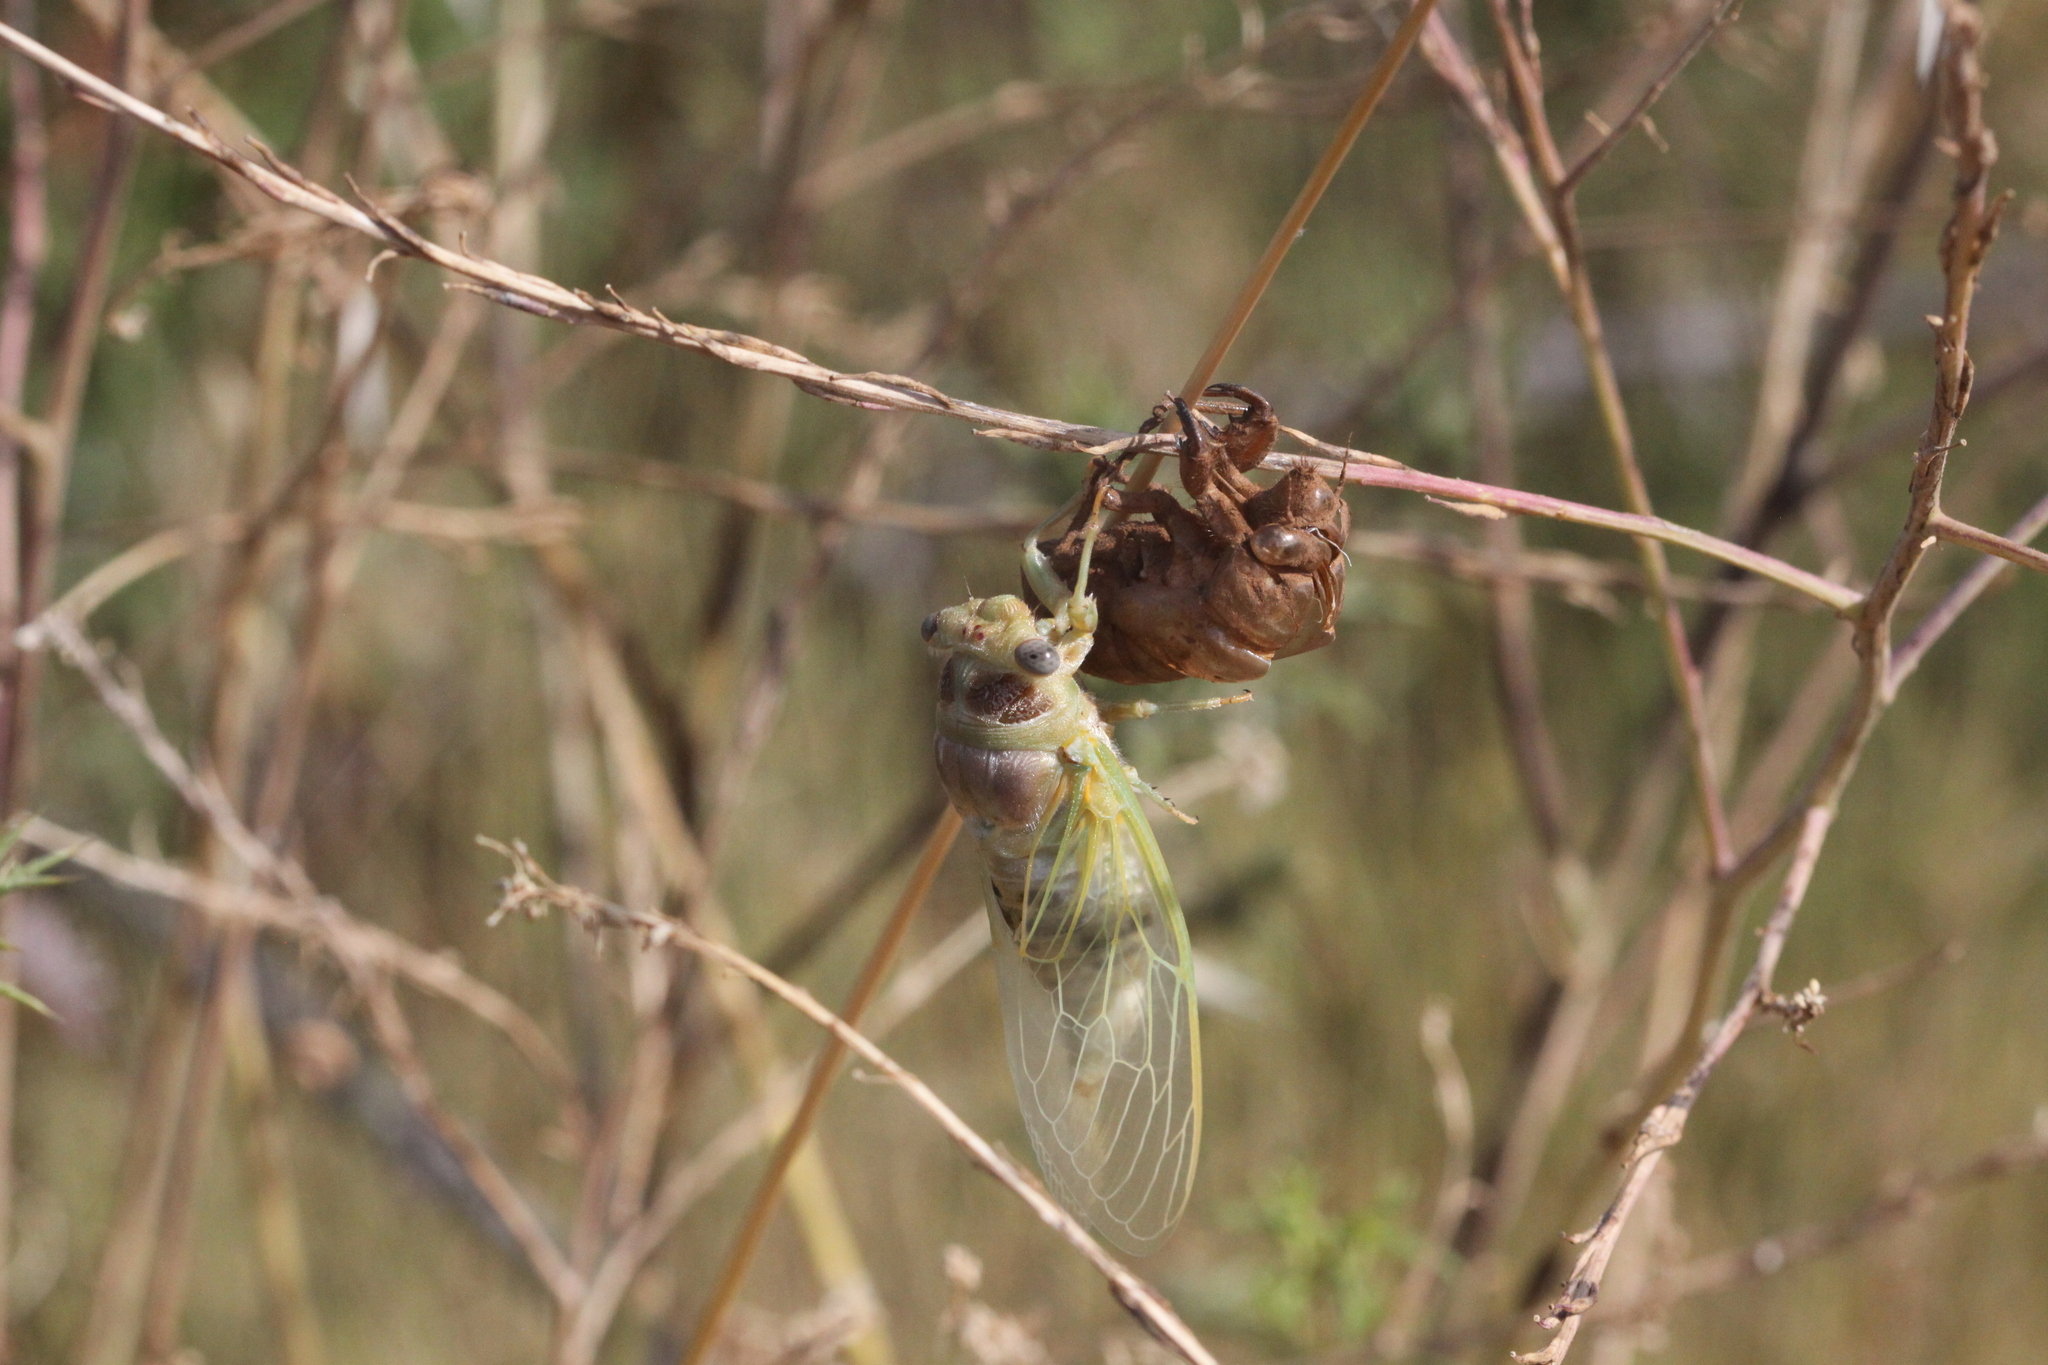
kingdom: Animalia
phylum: Arthropoda
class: Insecta
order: Hemiptera
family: Cicadidae
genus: Lyristes
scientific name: Lyristes plebejus
